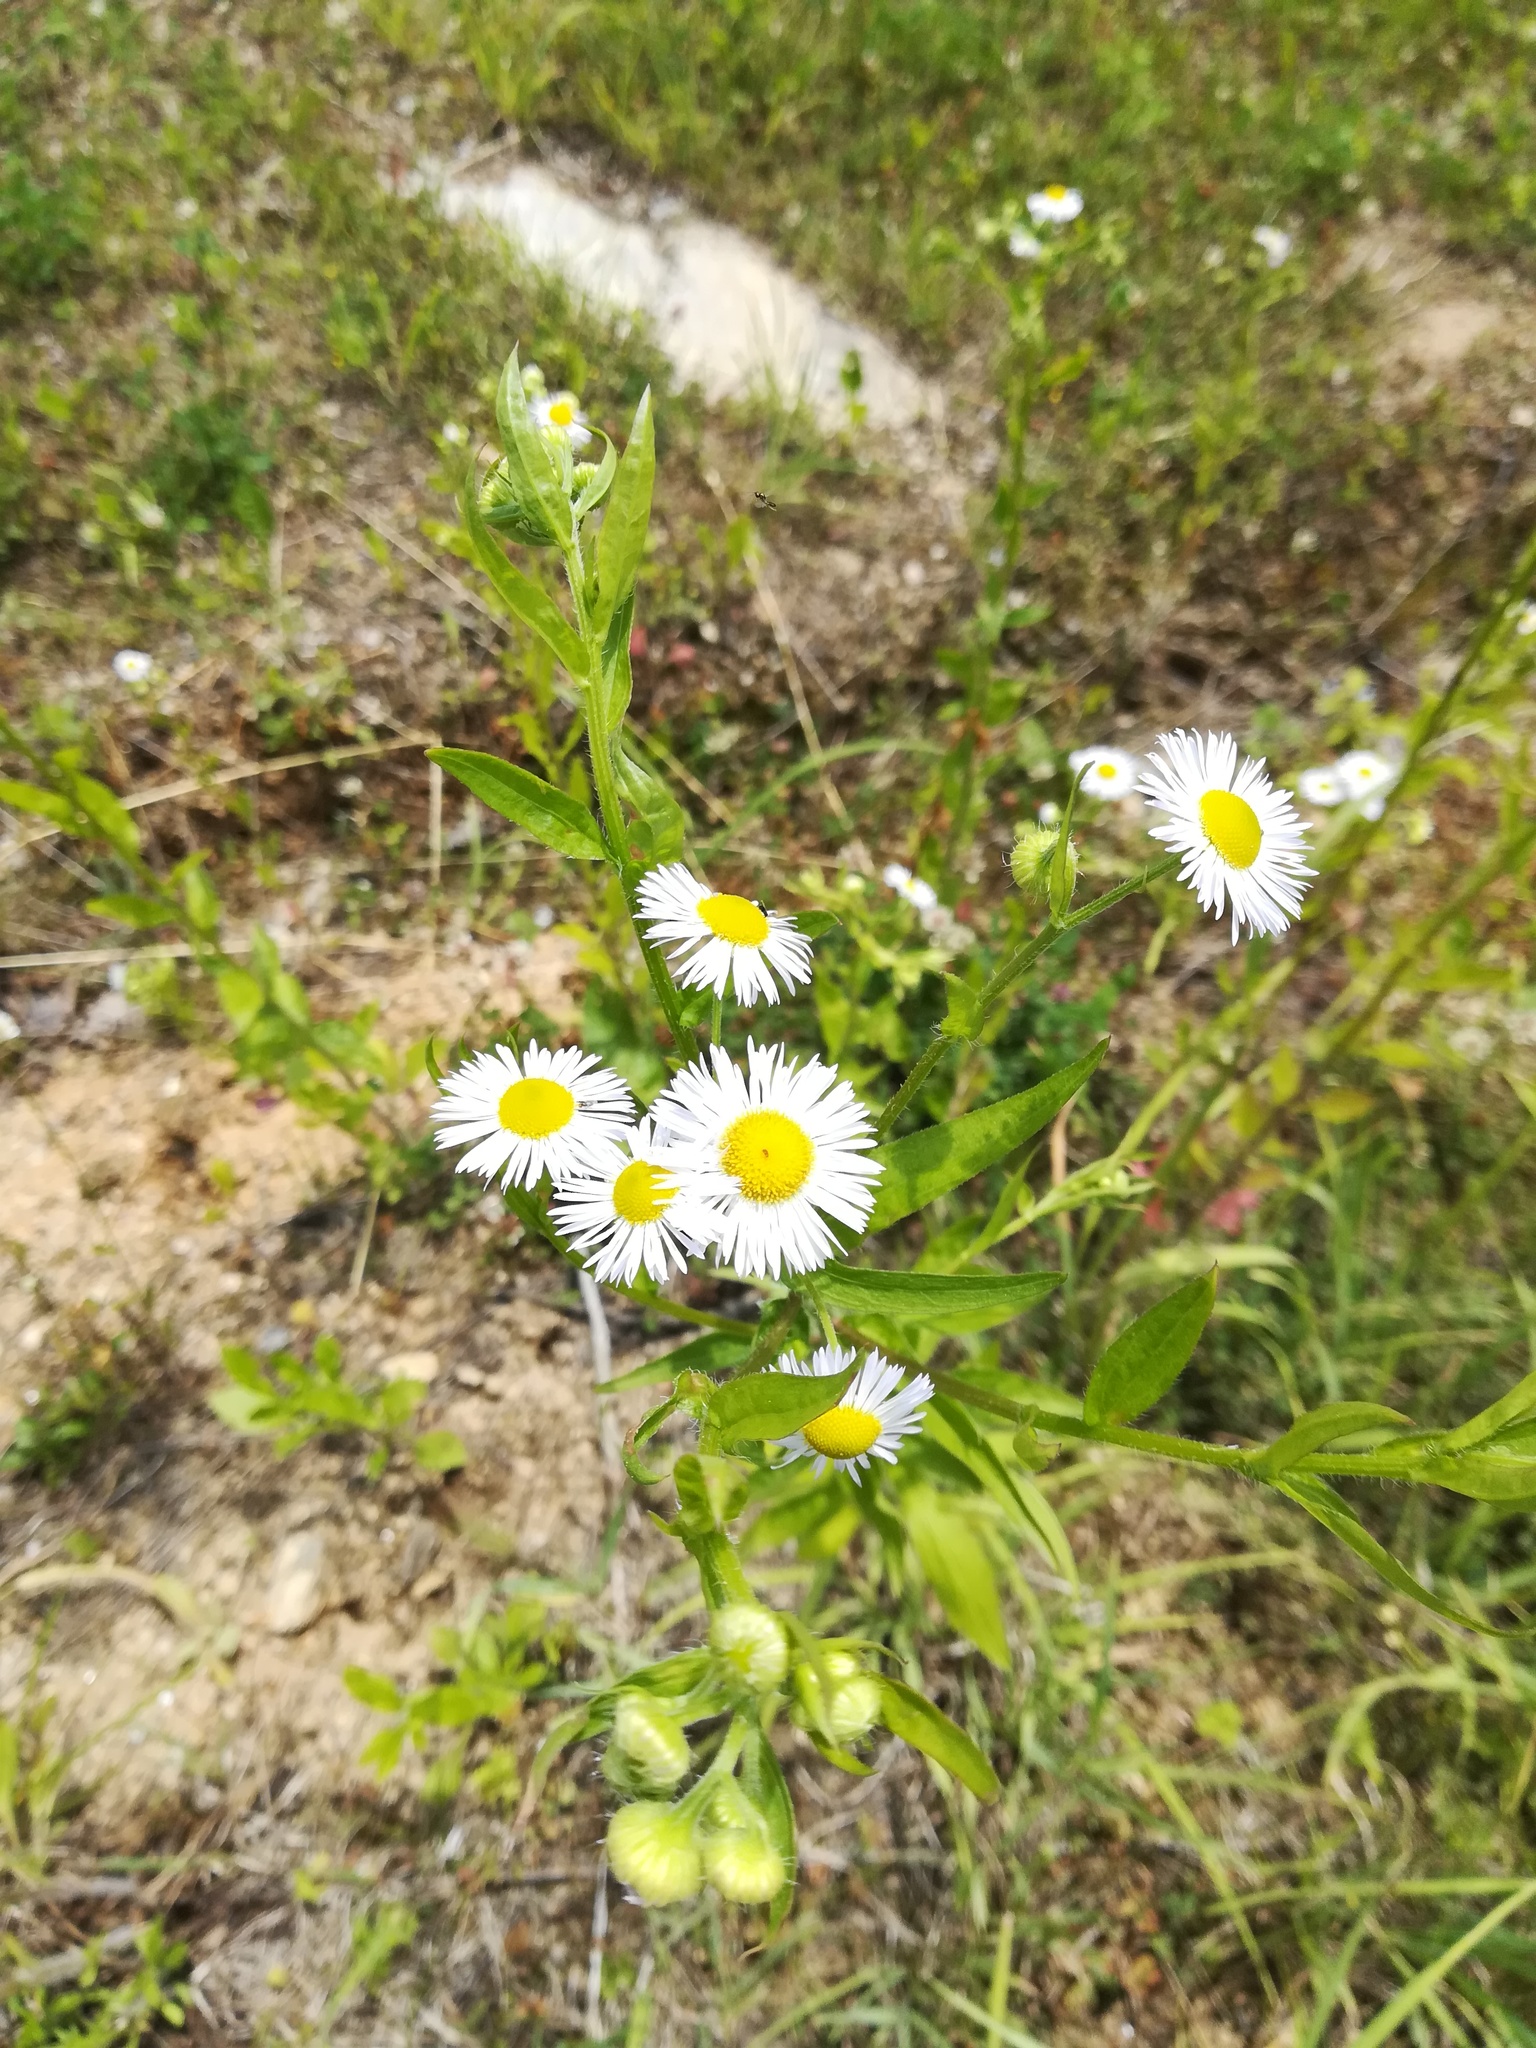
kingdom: Plantae
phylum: Tracheophyta
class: Magnoliopsida
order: Asterales
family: Asteraceae
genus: Erigeron
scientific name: Erigeron annuus
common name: Tall fleabane
